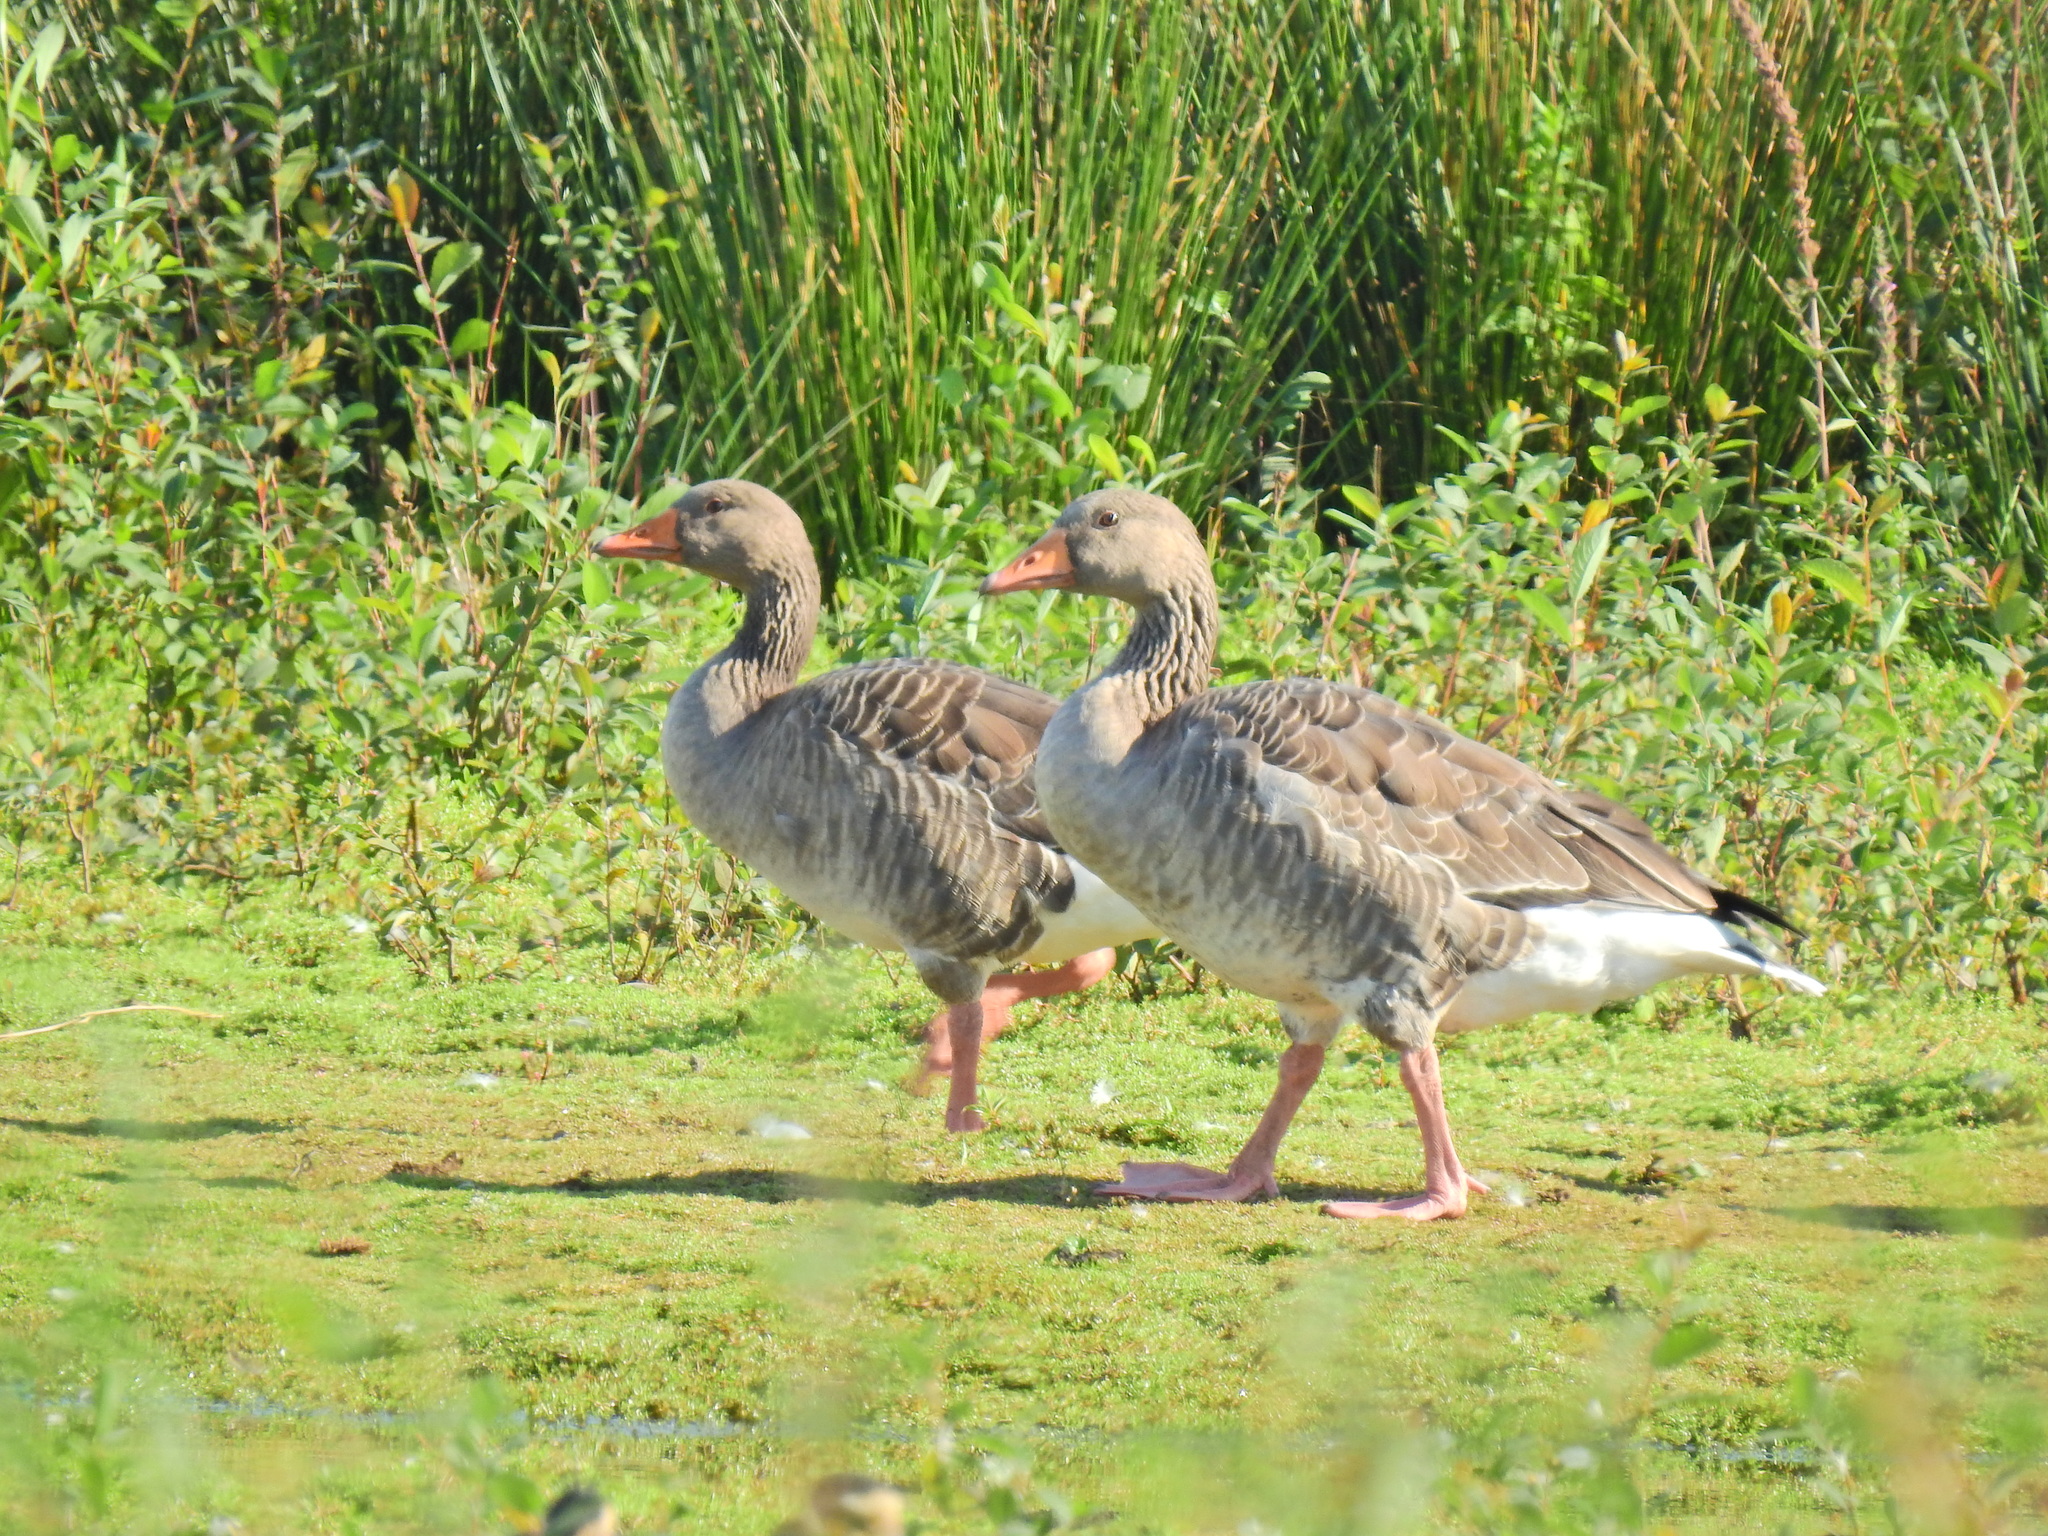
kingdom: Animalia
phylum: Chordata
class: Aves
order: Anseriformes
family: Anatidae
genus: Anser
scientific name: Anser anser
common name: Greylag goose
